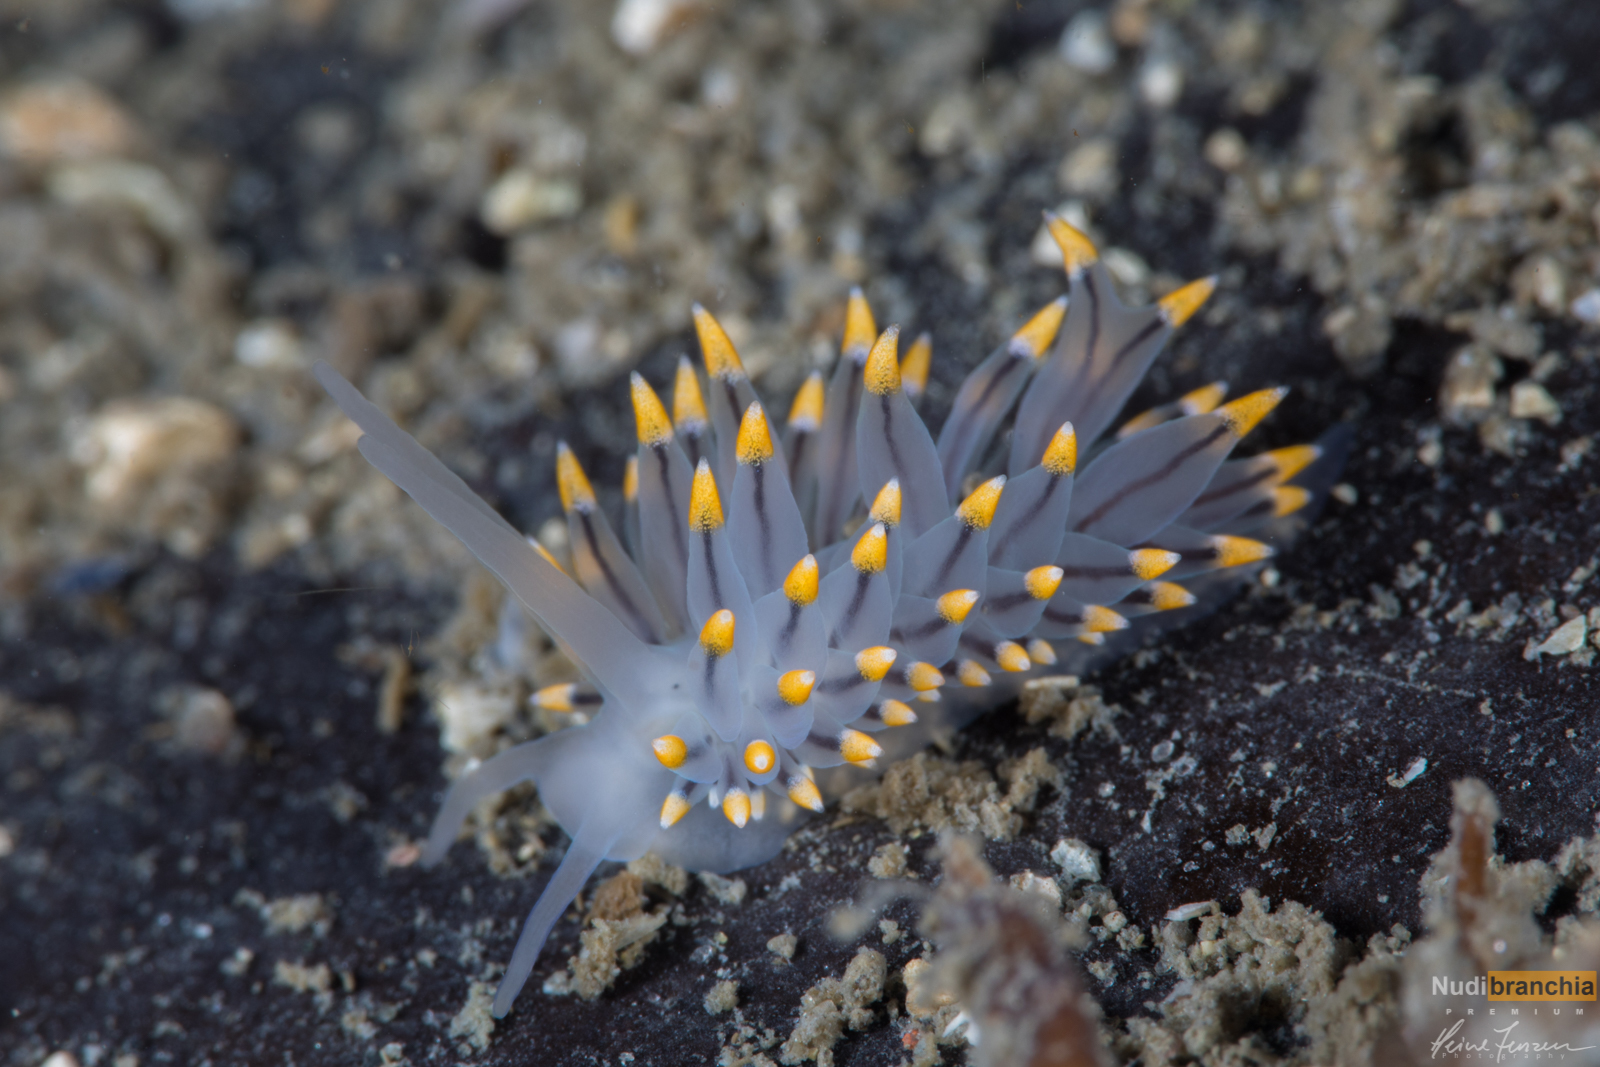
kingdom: Animalia
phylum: Mollusca
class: Gastropoda
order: Nudibranchia
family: Eubranchidae
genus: Eubranchus
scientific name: Eubranchus tricolor
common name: Painted balloon aeolis
